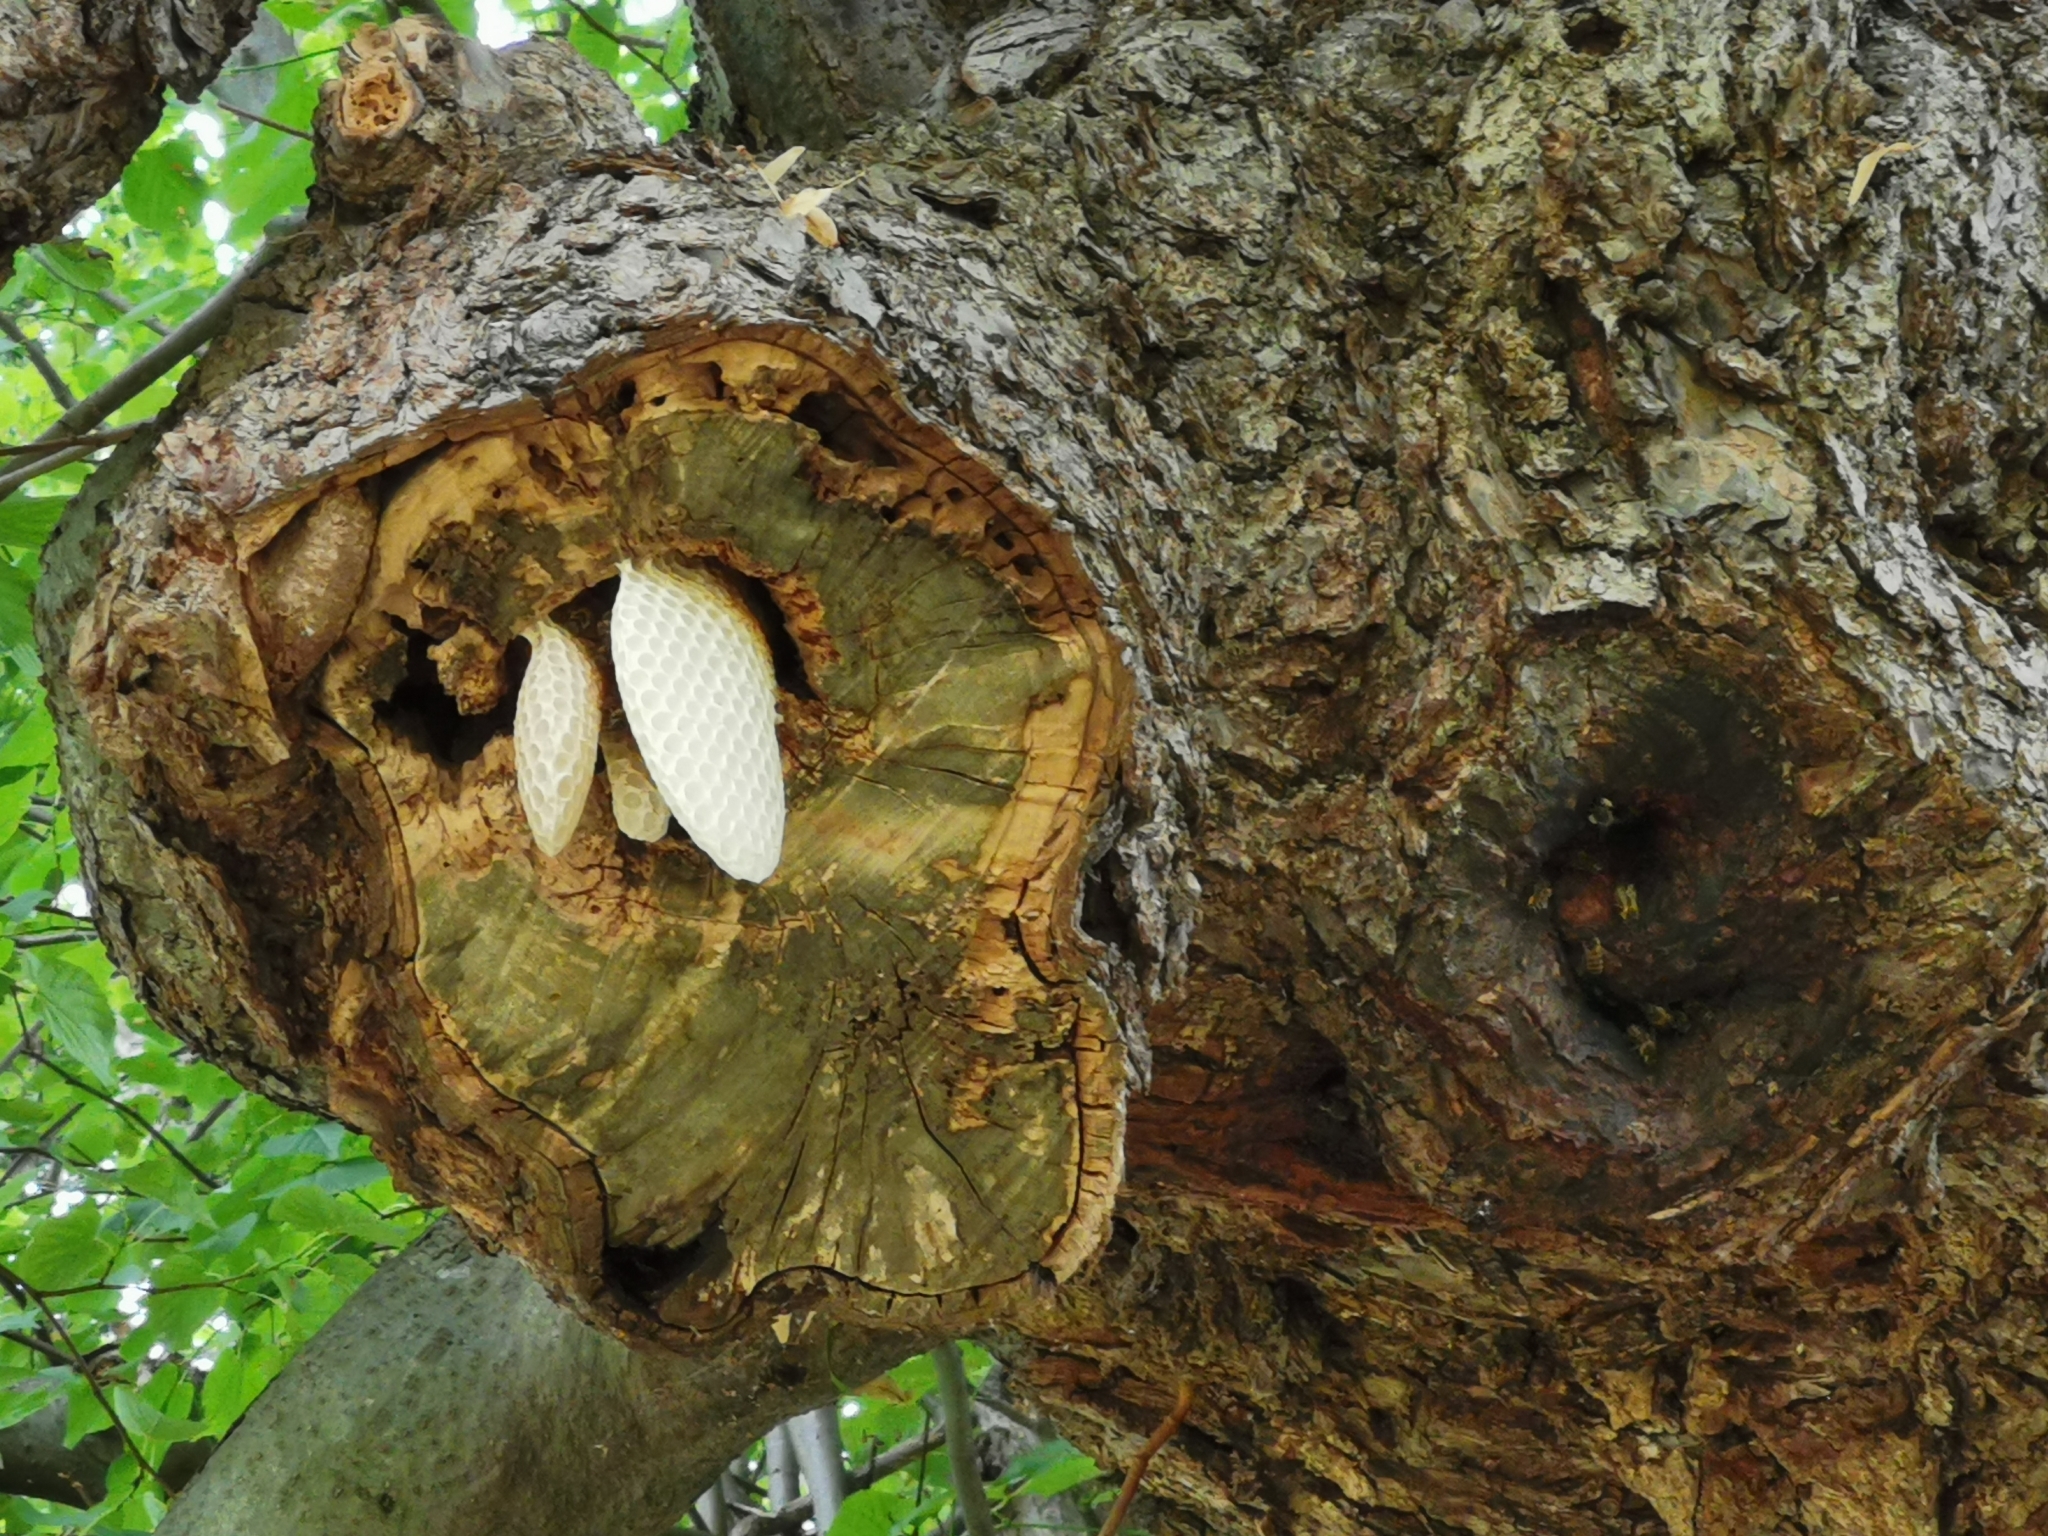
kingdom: Animalia
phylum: Arthropoda
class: Insecta
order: Hymenoptera
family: Apidae
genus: Apis
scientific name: Apis mellifera
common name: Honey bee
